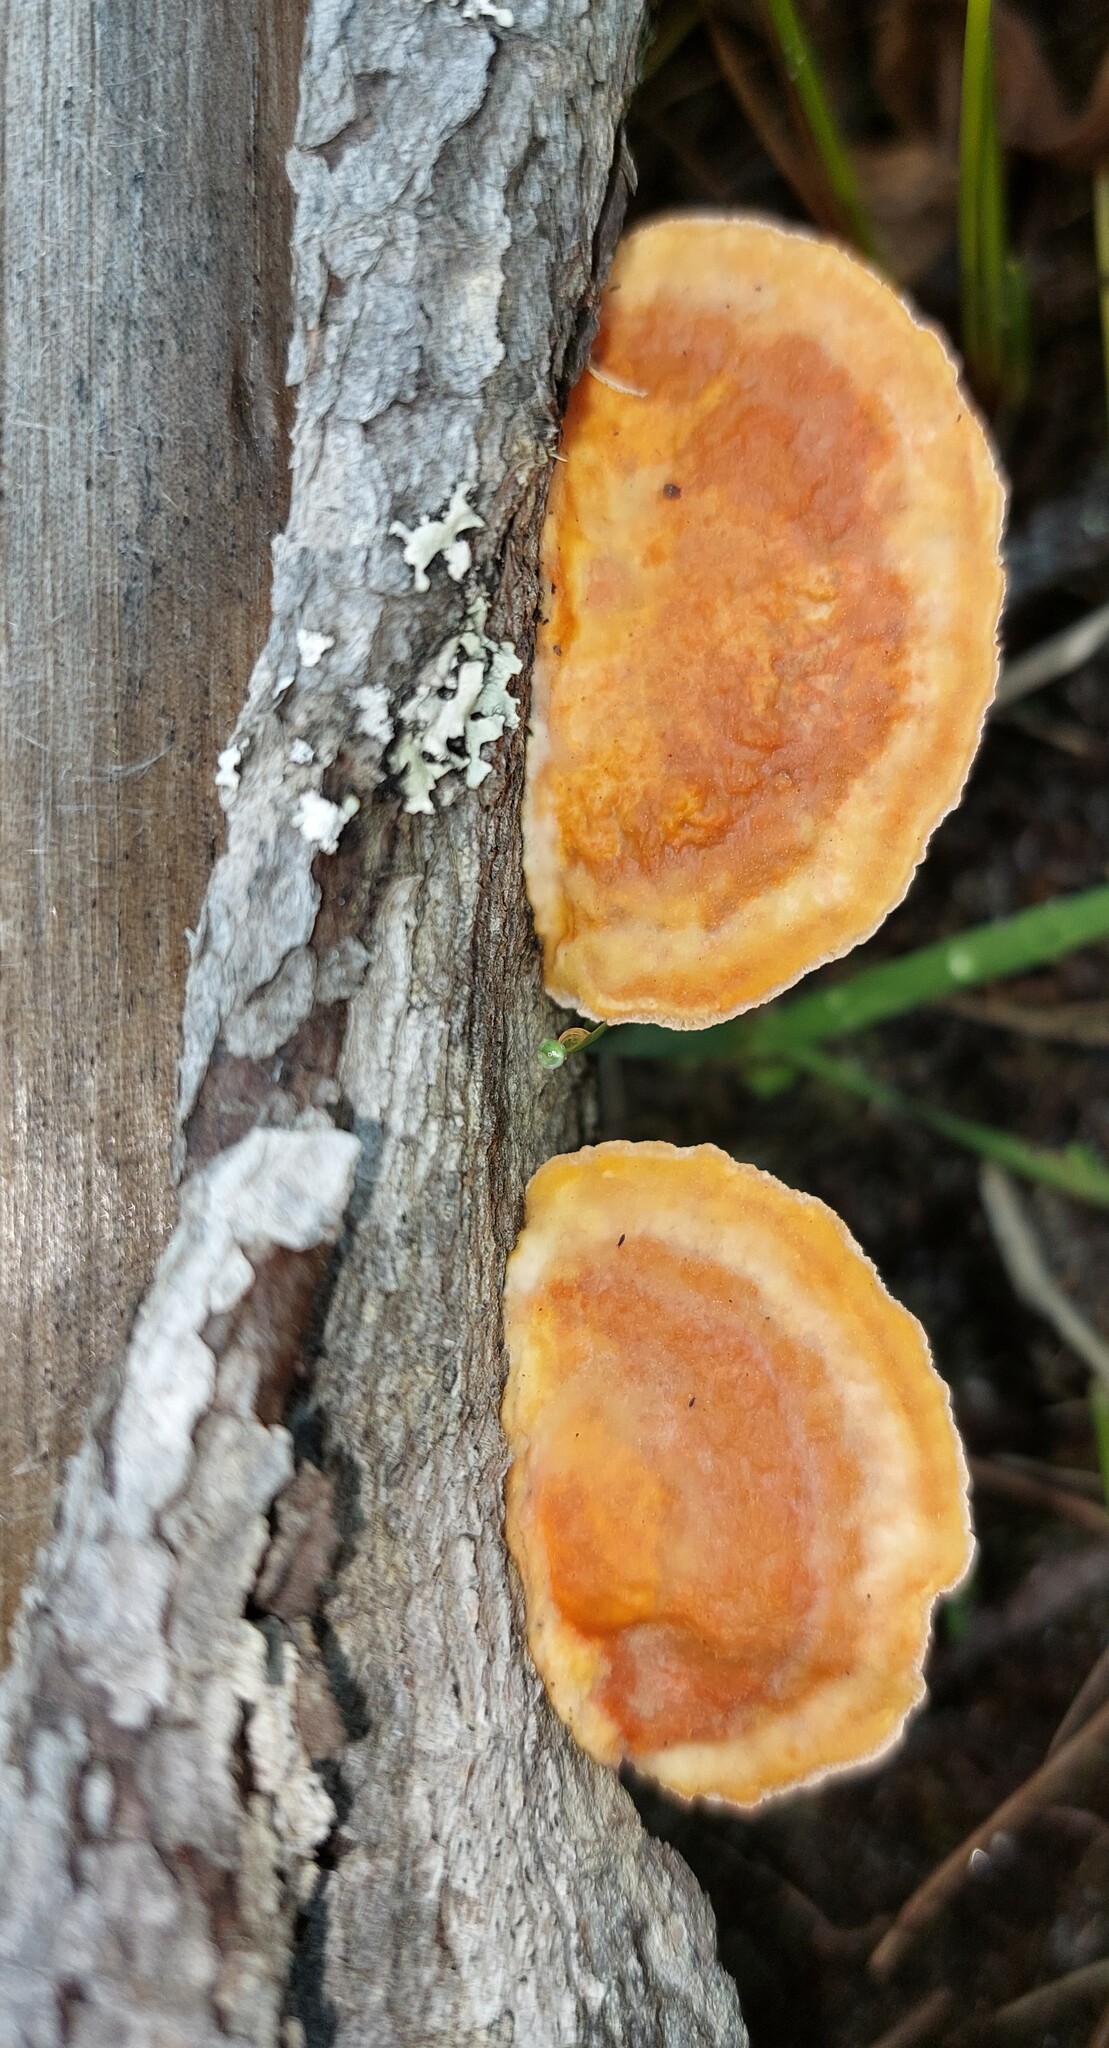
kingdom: Fungi
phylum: Basidiomycota
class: Agaricomycetes
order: Polyporales
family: Polyporaceae
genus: Trametes
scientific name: Trametes coccinea
